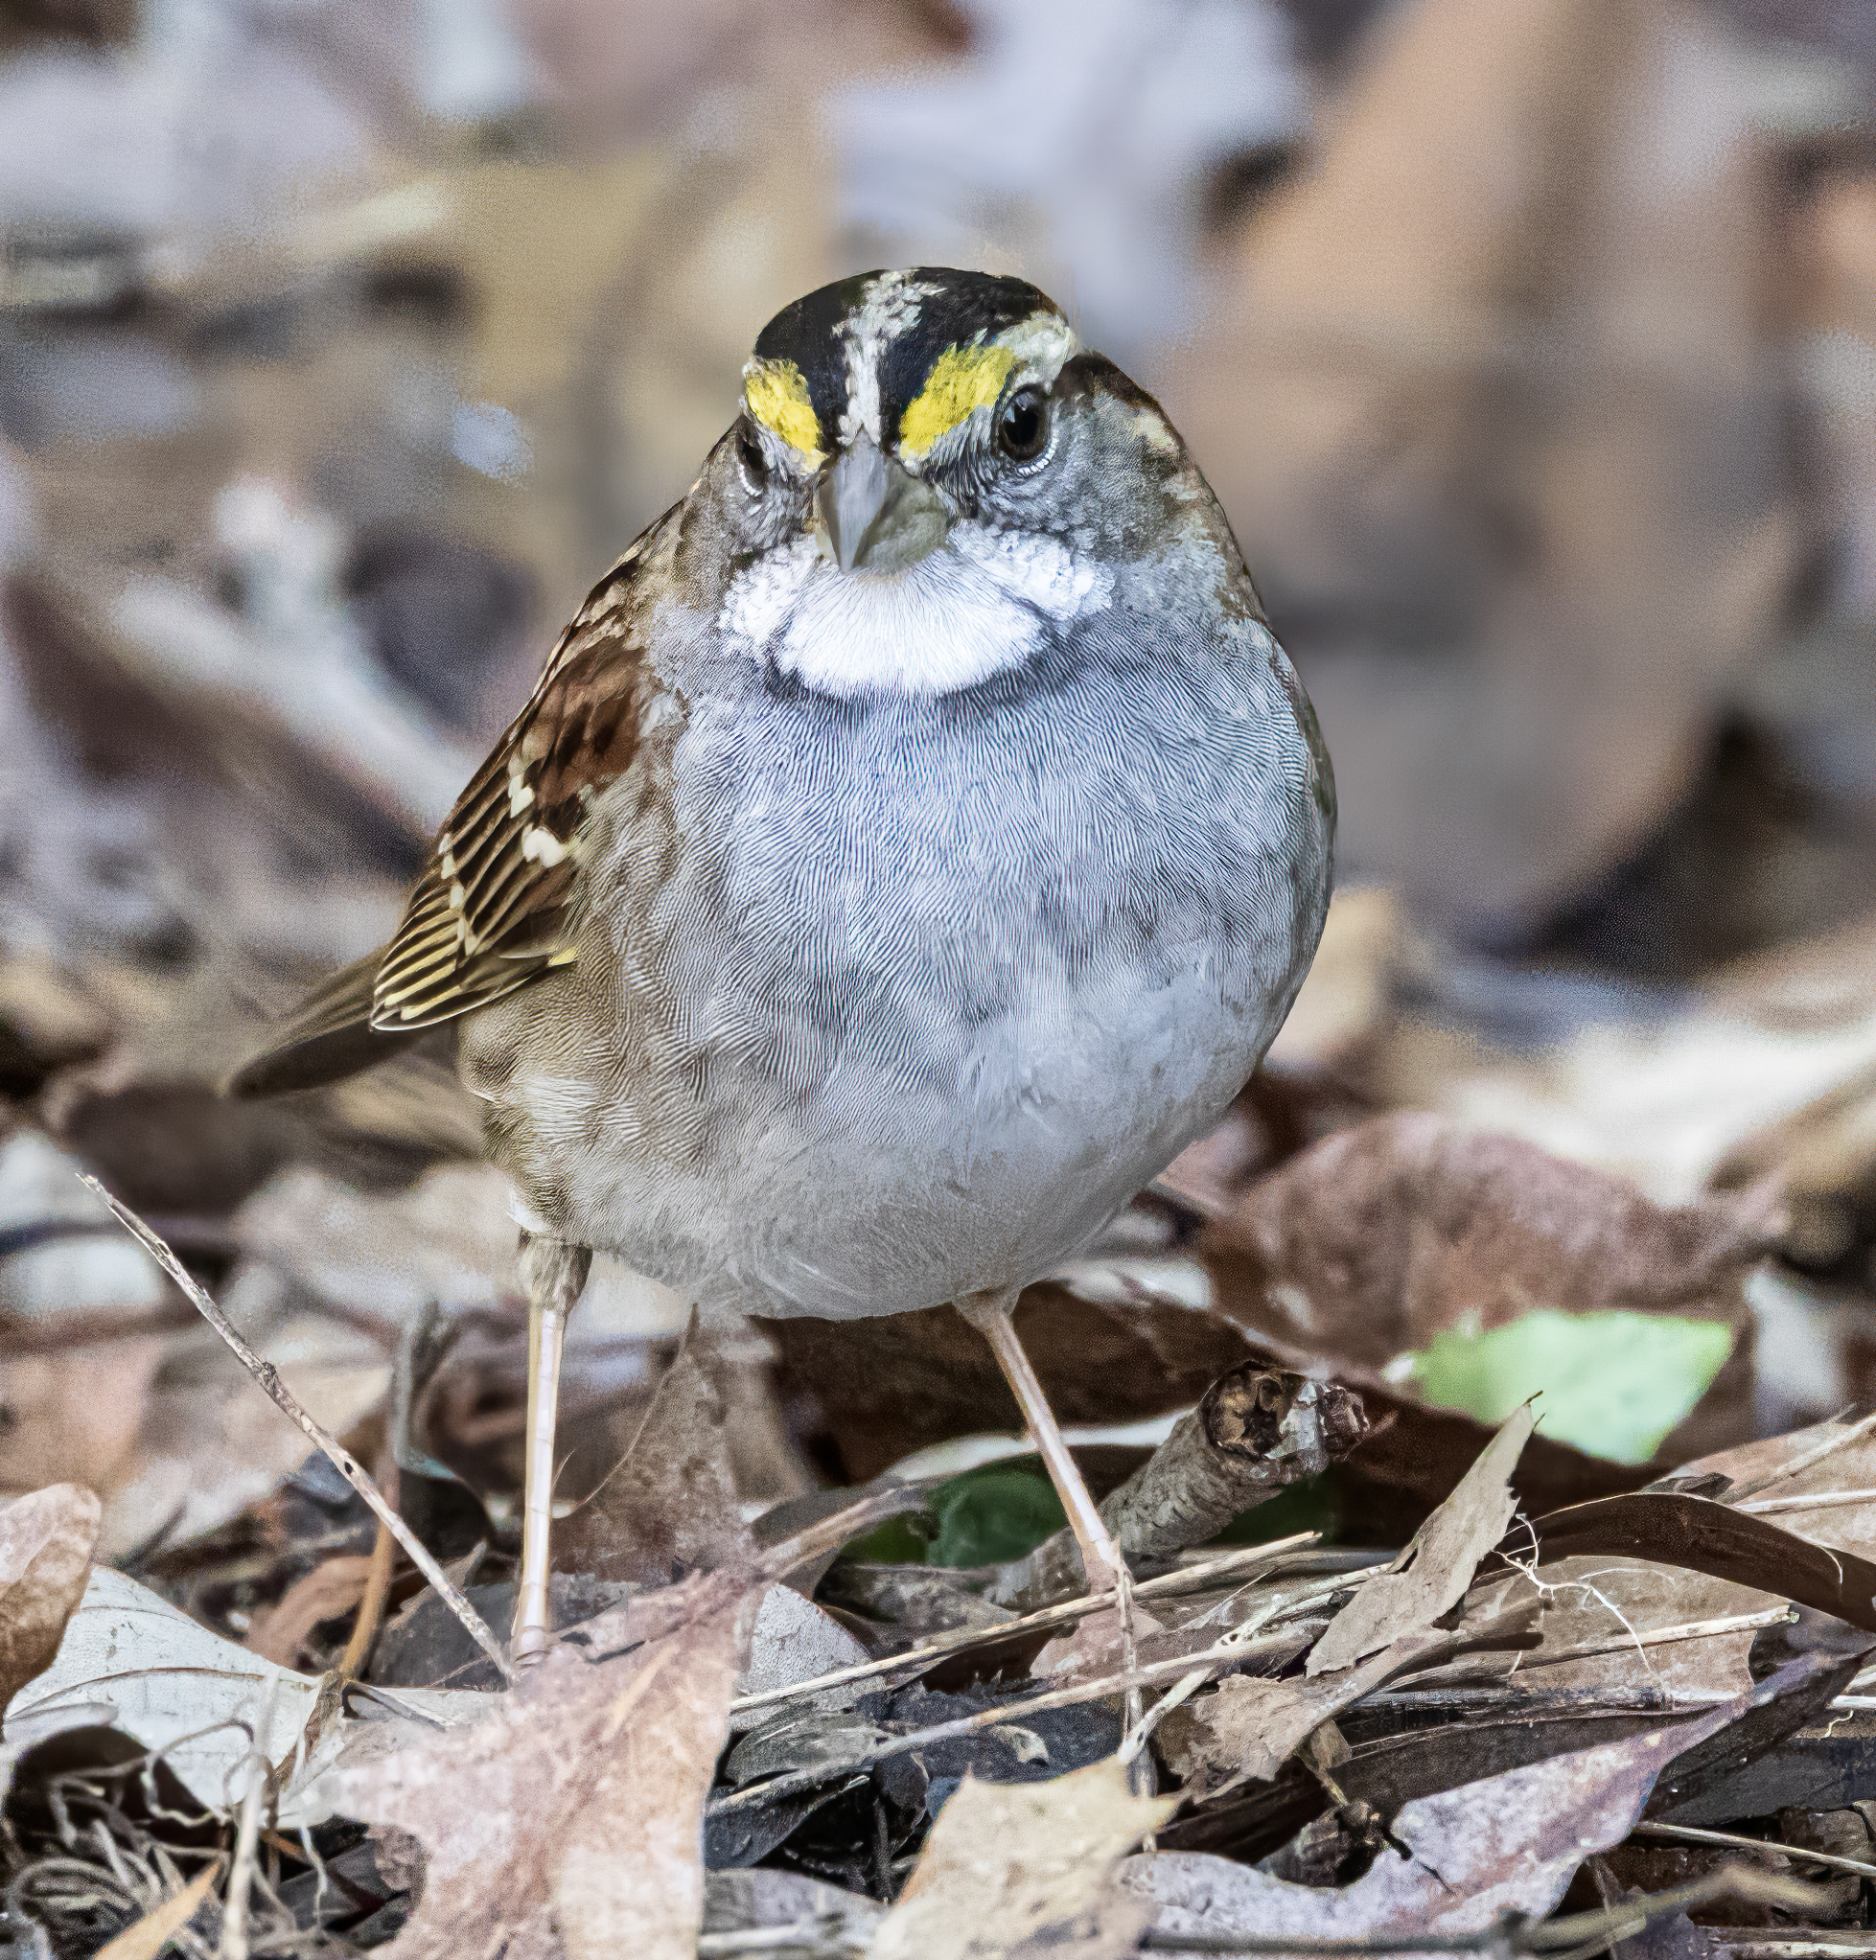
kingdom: Animalia
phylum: Chordata
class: Aves
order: Passeriformes
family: Passerellidae
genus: Zonotrichia
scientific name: Zonotrichia albicollis
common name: White-throated sparrow
